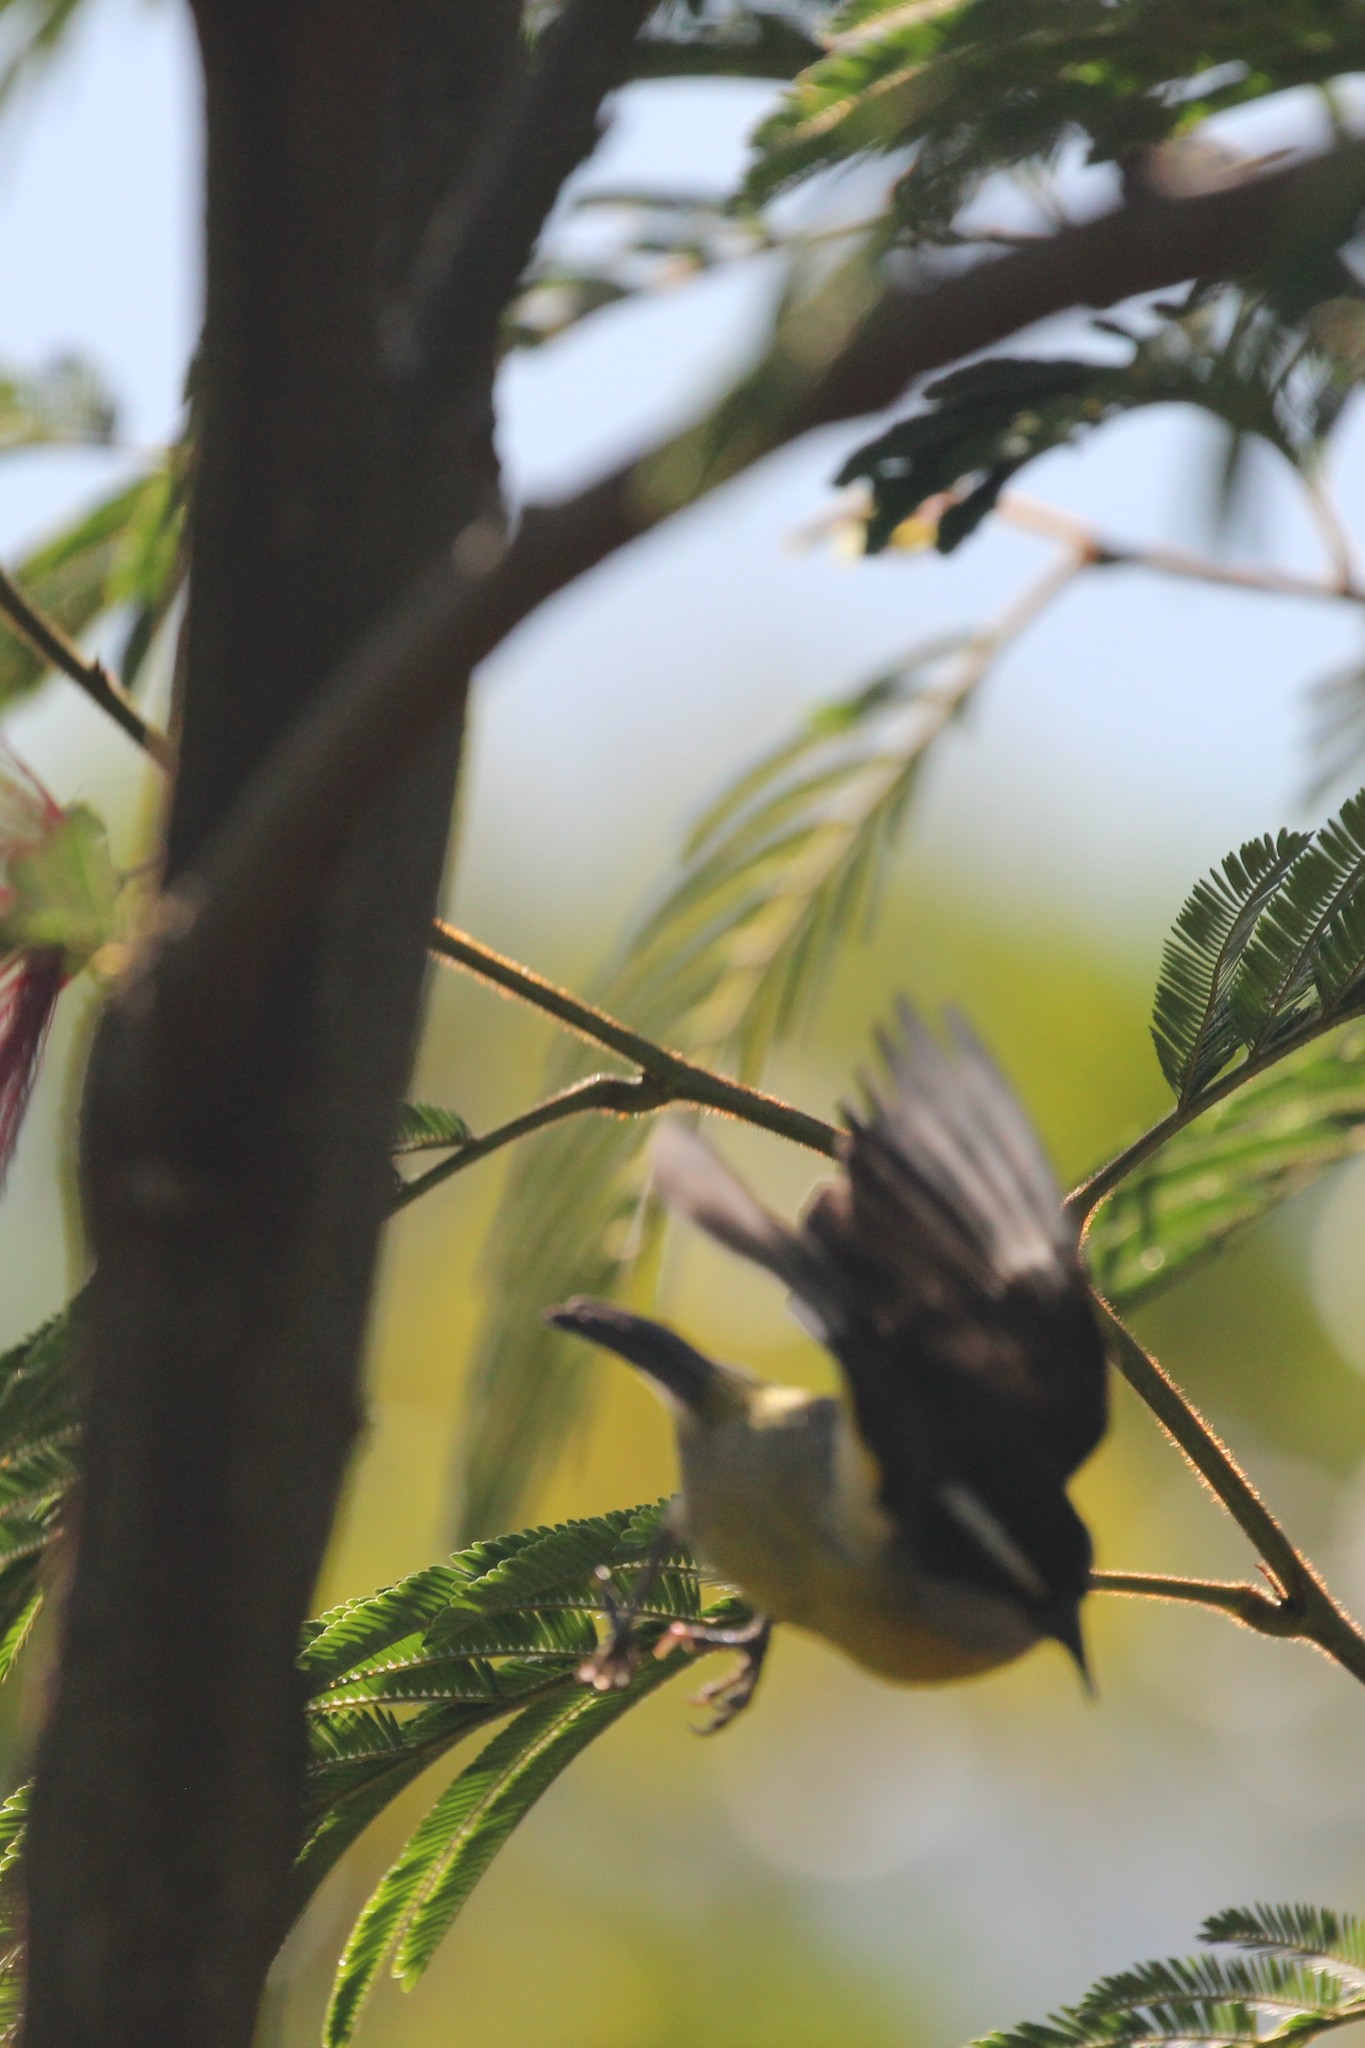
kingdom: Animalia
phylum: Chordata
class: Aves
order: Passeriformes
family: Thraupidae
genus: Coereba
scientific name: Coereba flaveola
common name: Bananaquit
